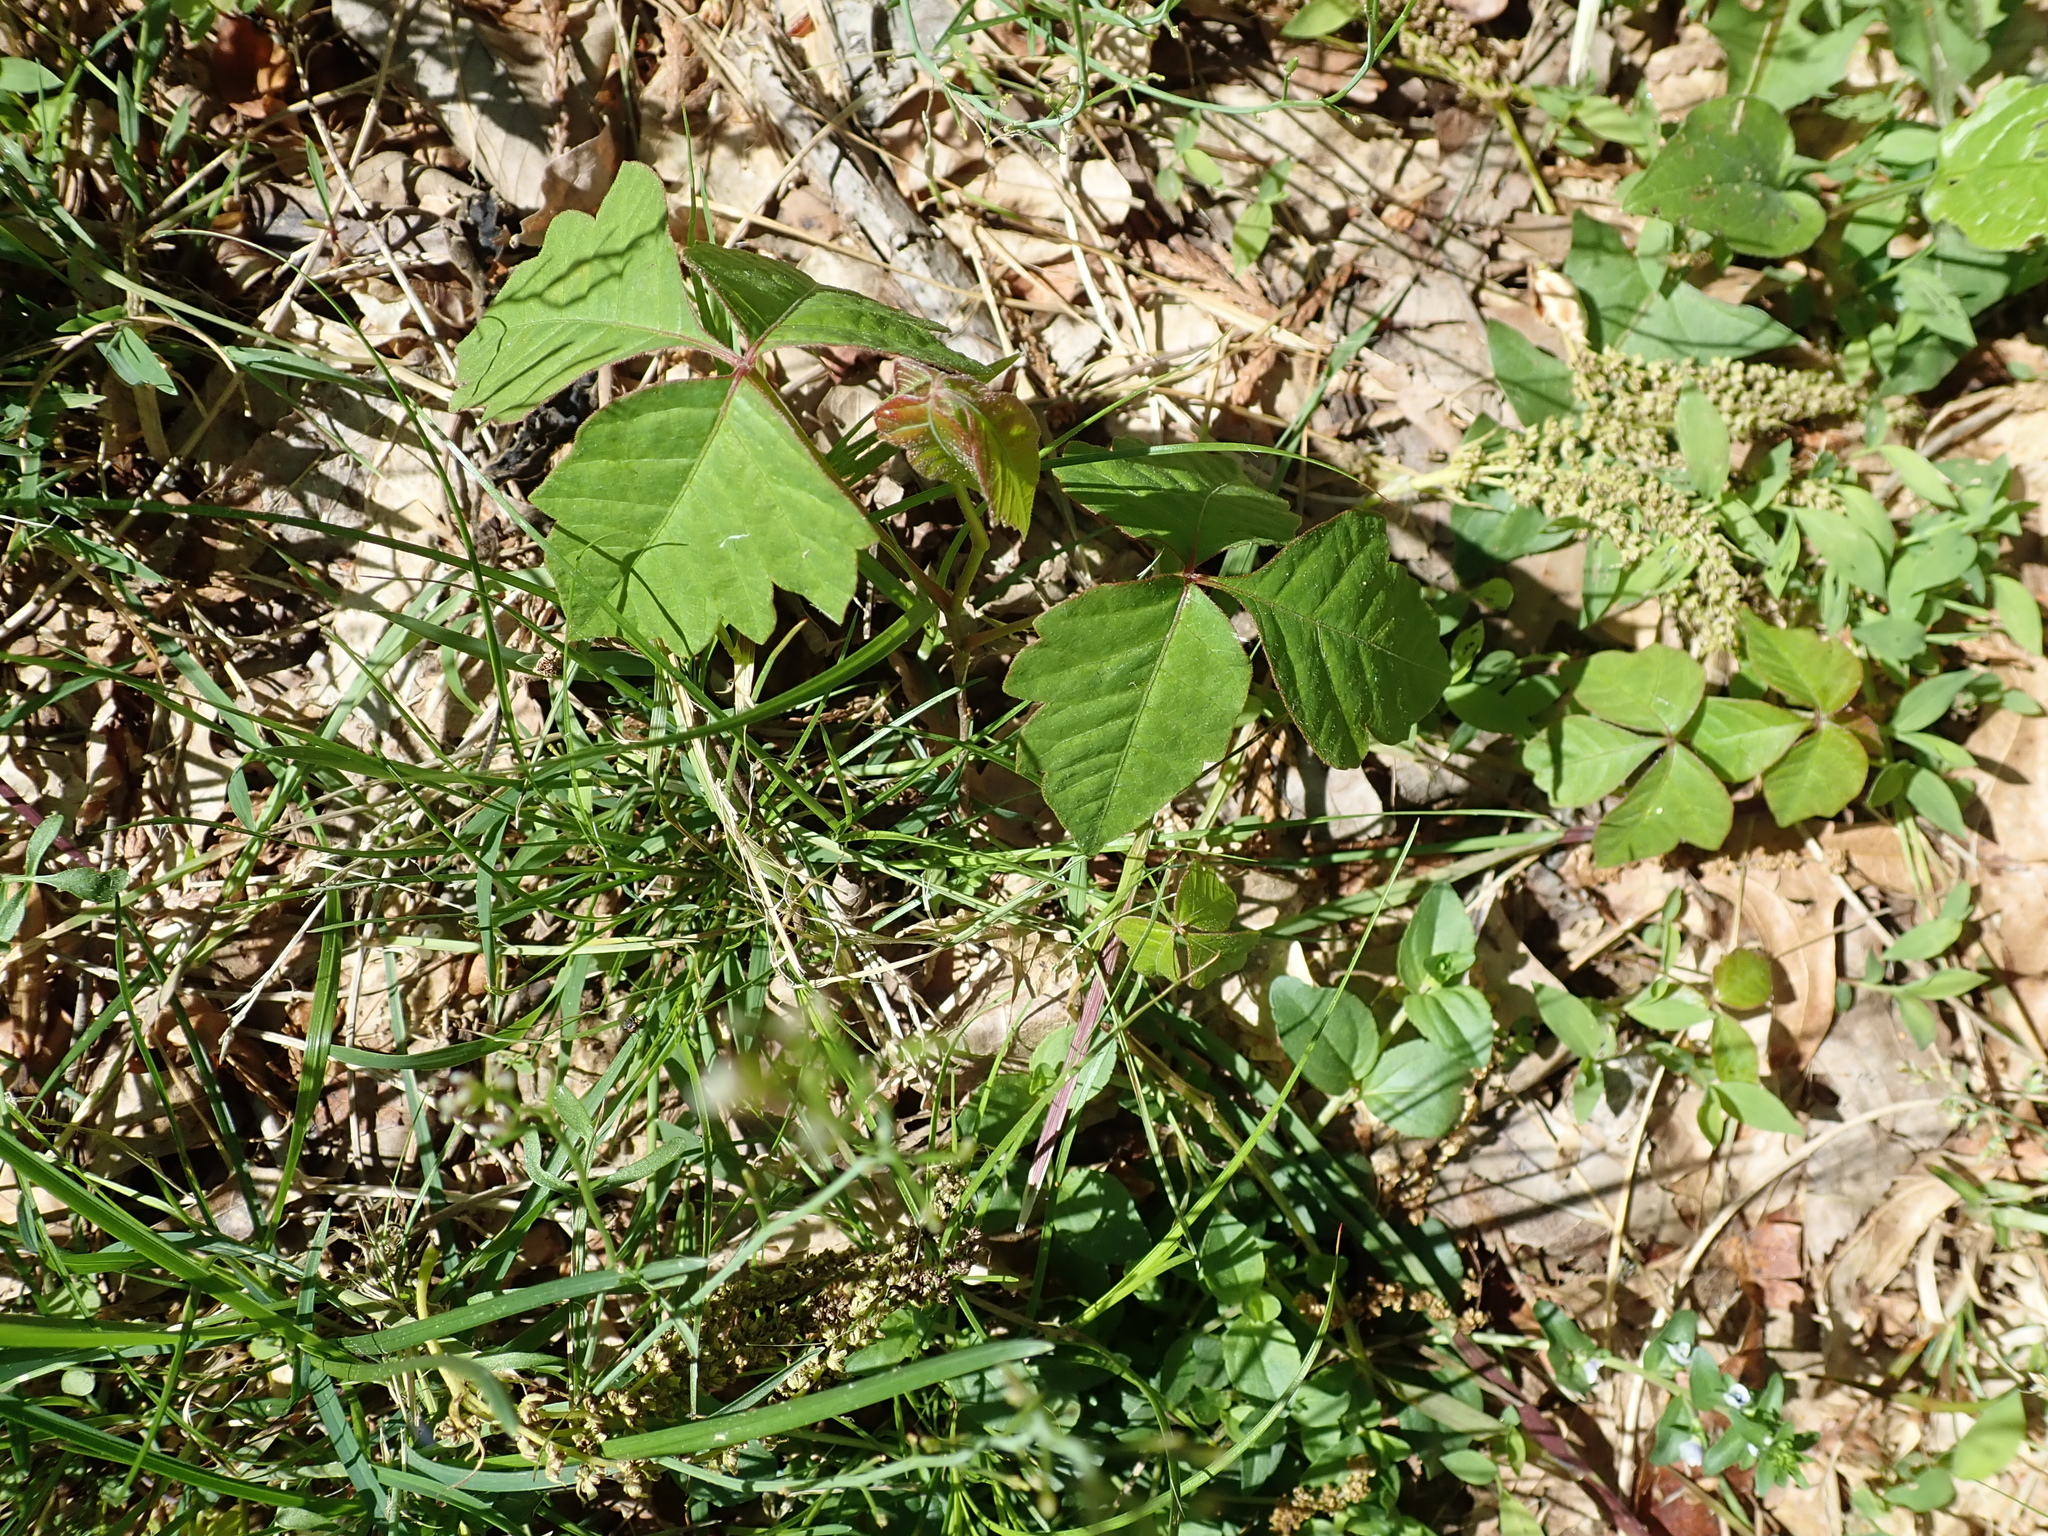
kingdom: Plantae
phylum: Tracheophyta
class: Magnoliopsida
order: Sapindales
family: Anacardiaceae
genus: Toxicodendron
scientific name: Toxicodendron radicans
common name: Poison ivy
